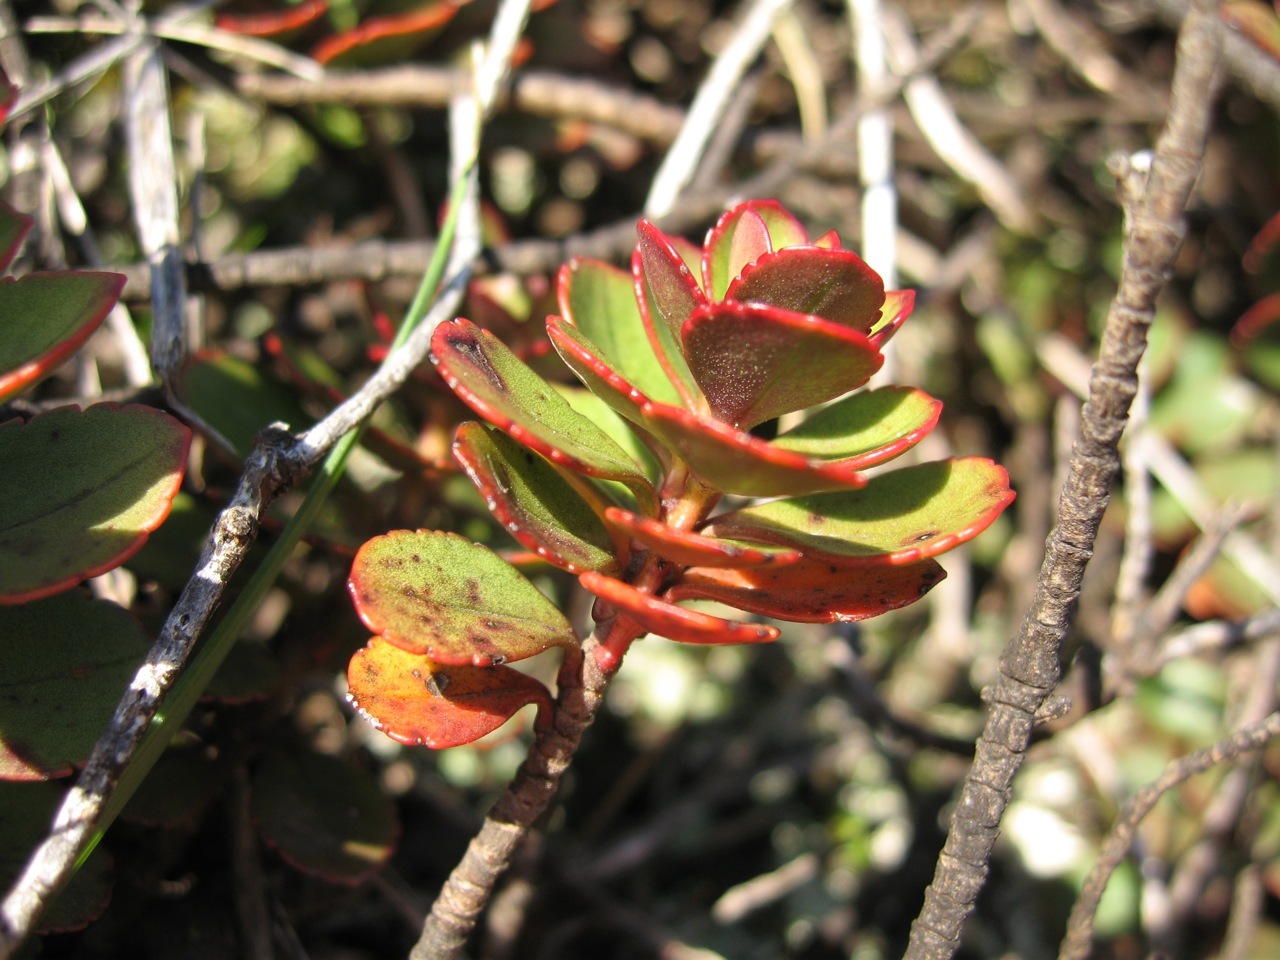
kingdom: Plantae
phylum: Tracheophyta
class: Magnoliopsida
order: Lamiales
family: Plantaginaceae
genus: Veronica
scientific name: Veronica lavaudiana
